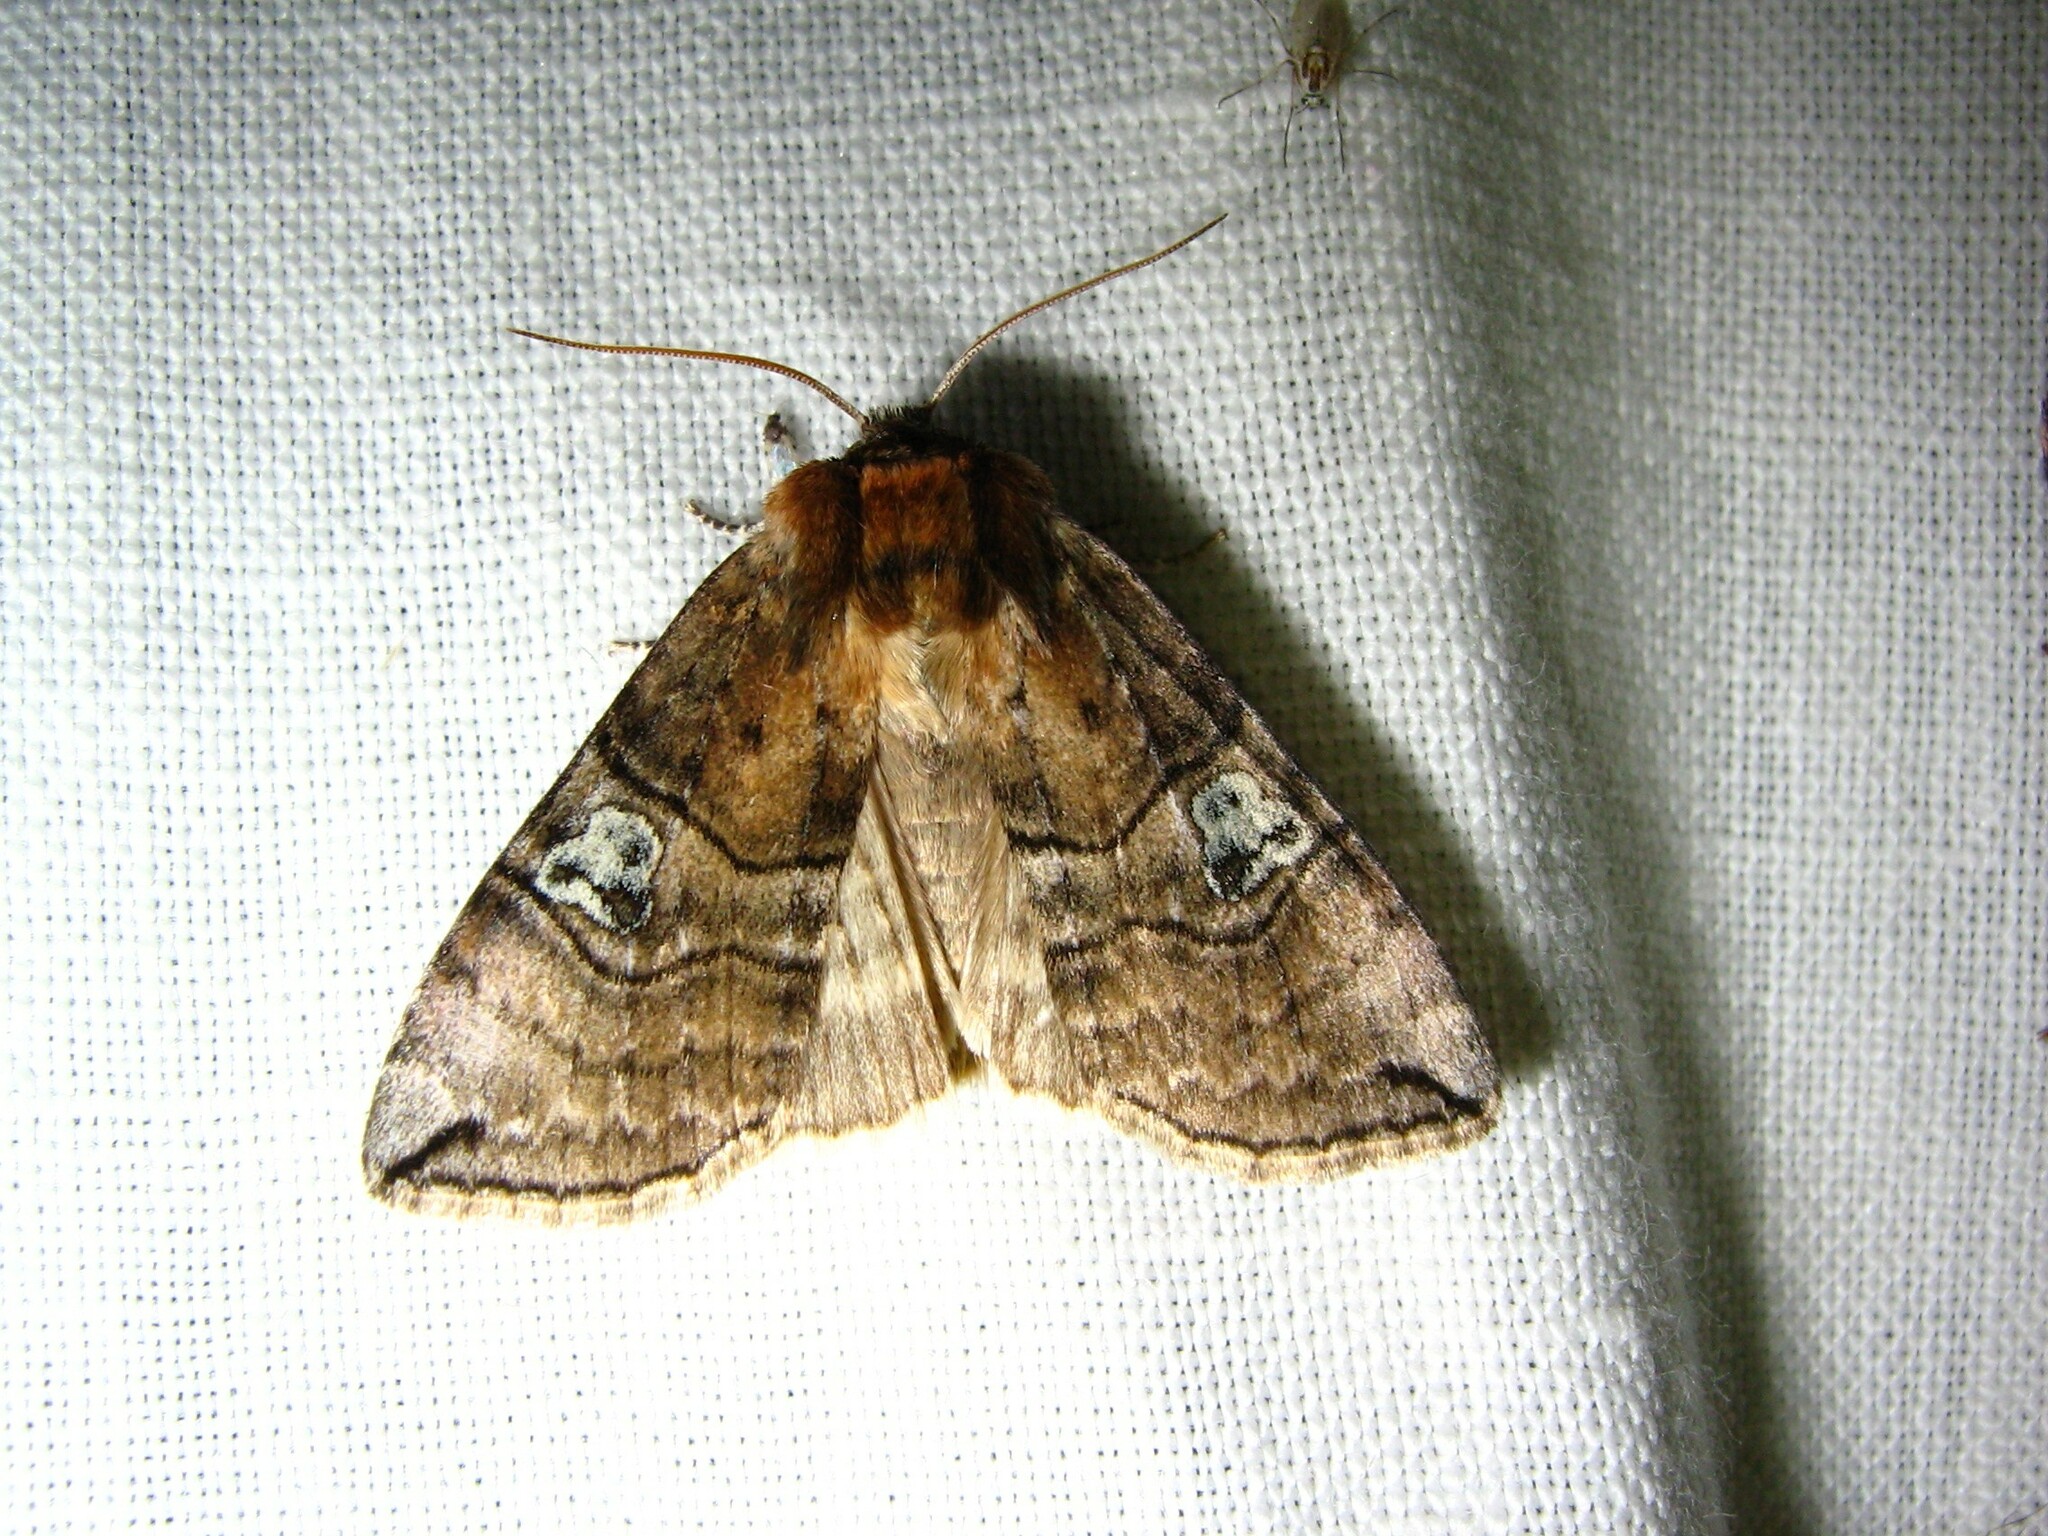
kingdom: Animalia
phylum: Arthropoda
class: Insecta
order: Lepidoptera
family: Drepanidae
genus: Tethea
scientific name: Tethea ocularis
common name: Figure of eighty
